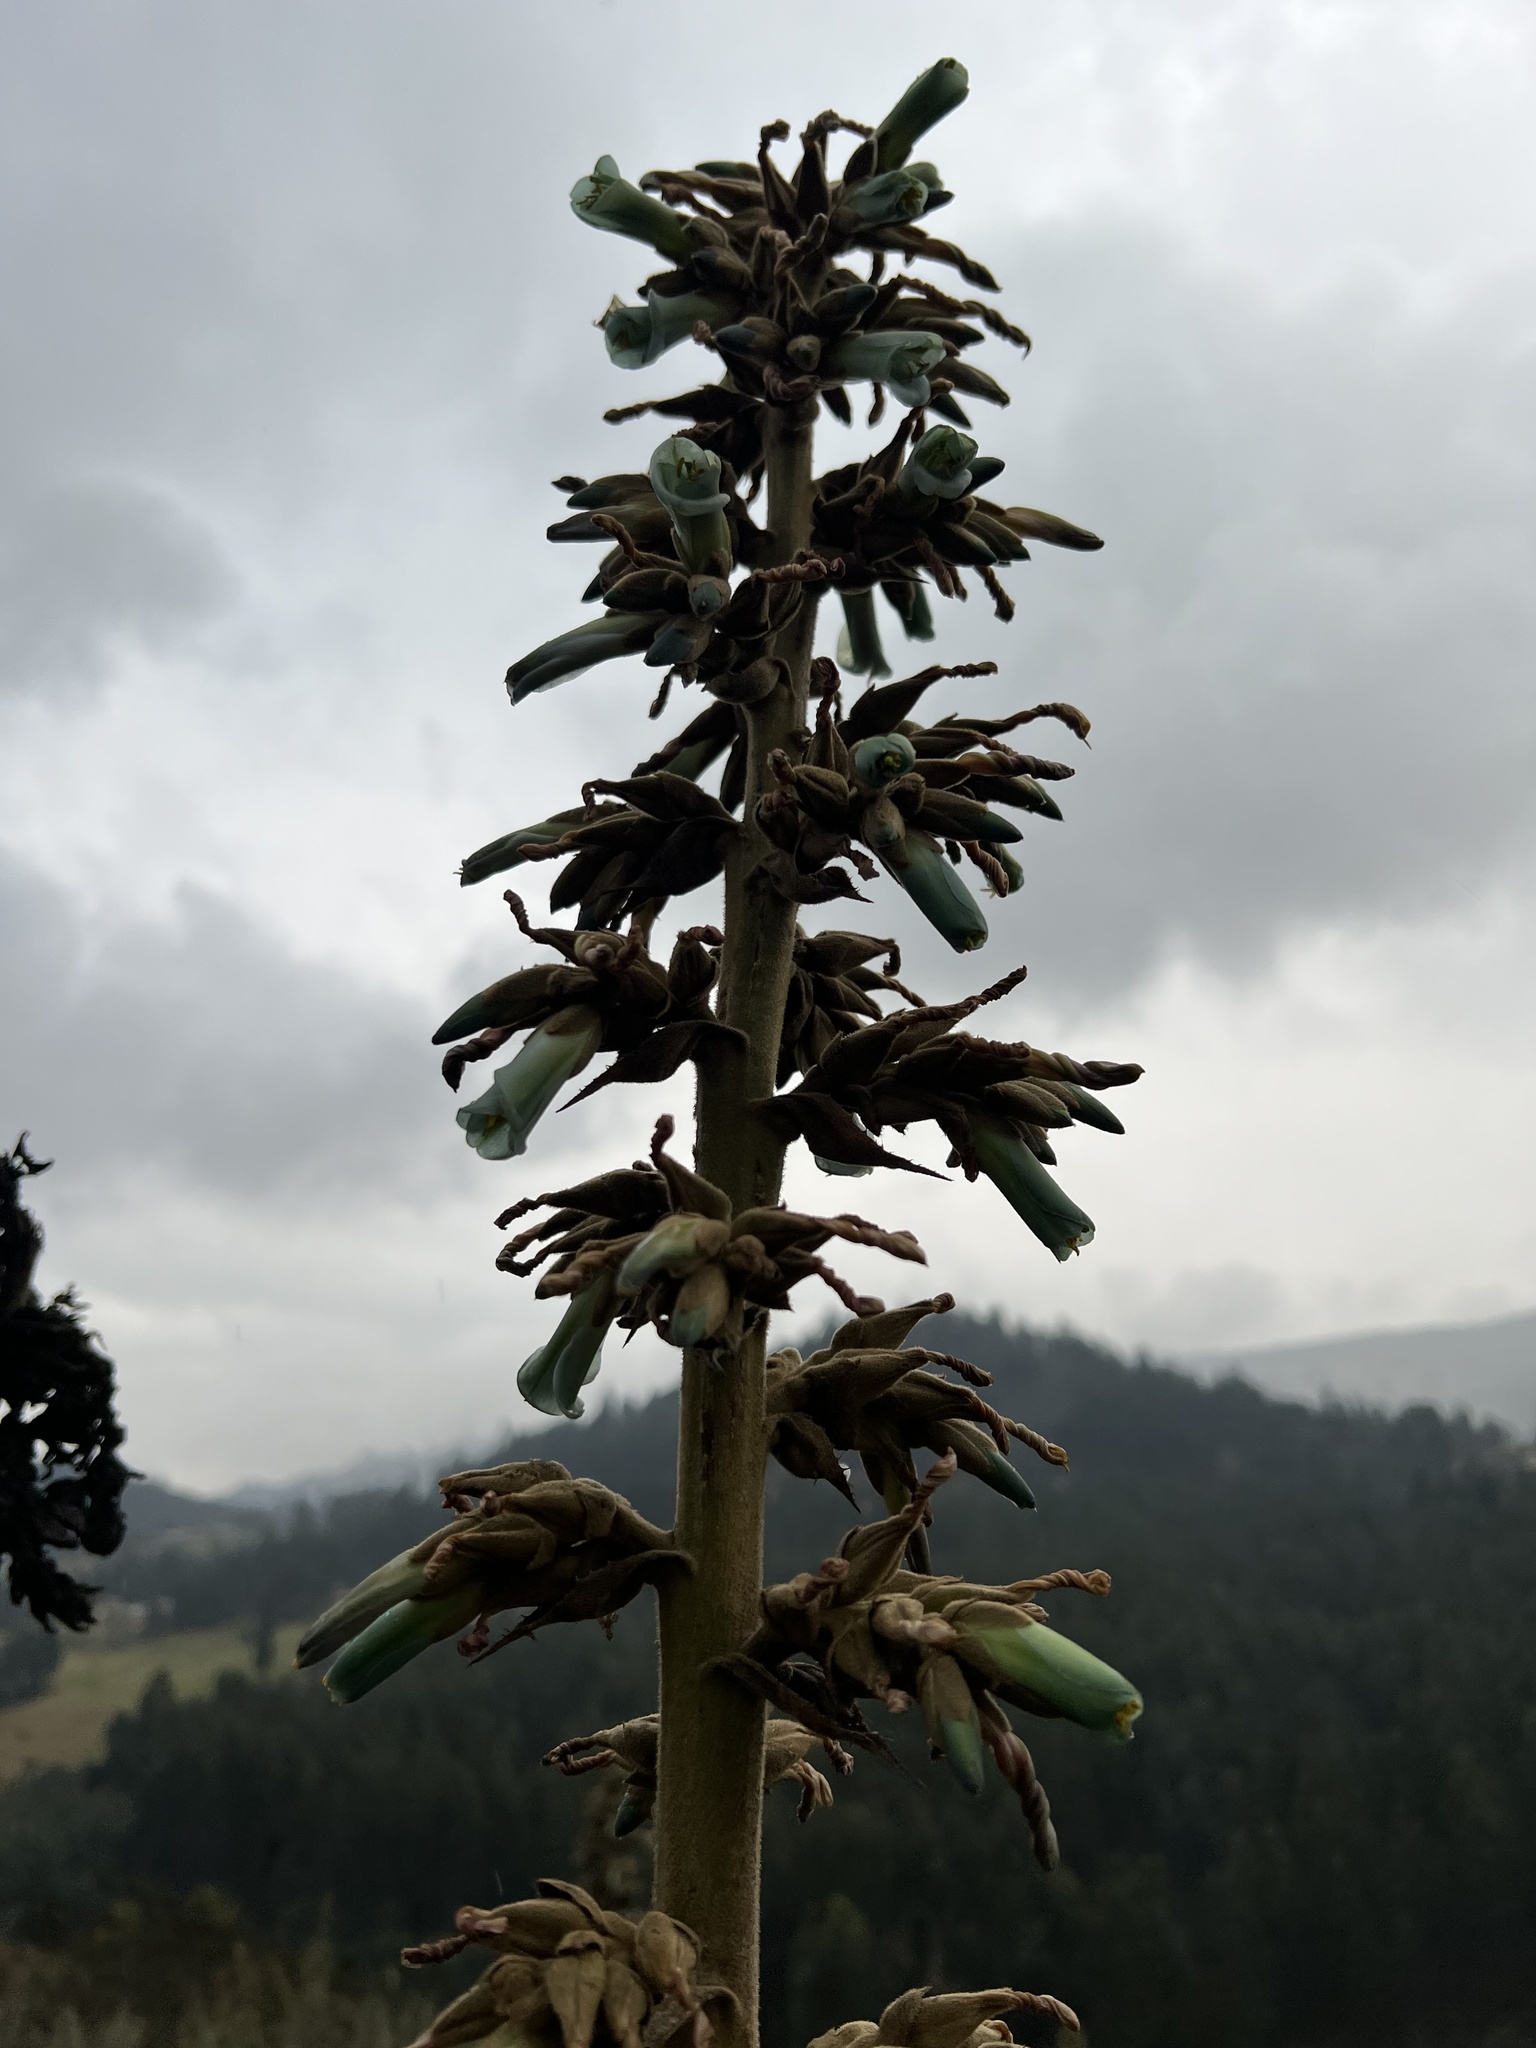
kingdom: Plantae
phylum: Tracheophyta
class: Liliopsida
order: Poales
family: Bromeliaceae
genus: Puya
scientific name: Puya bicolor
